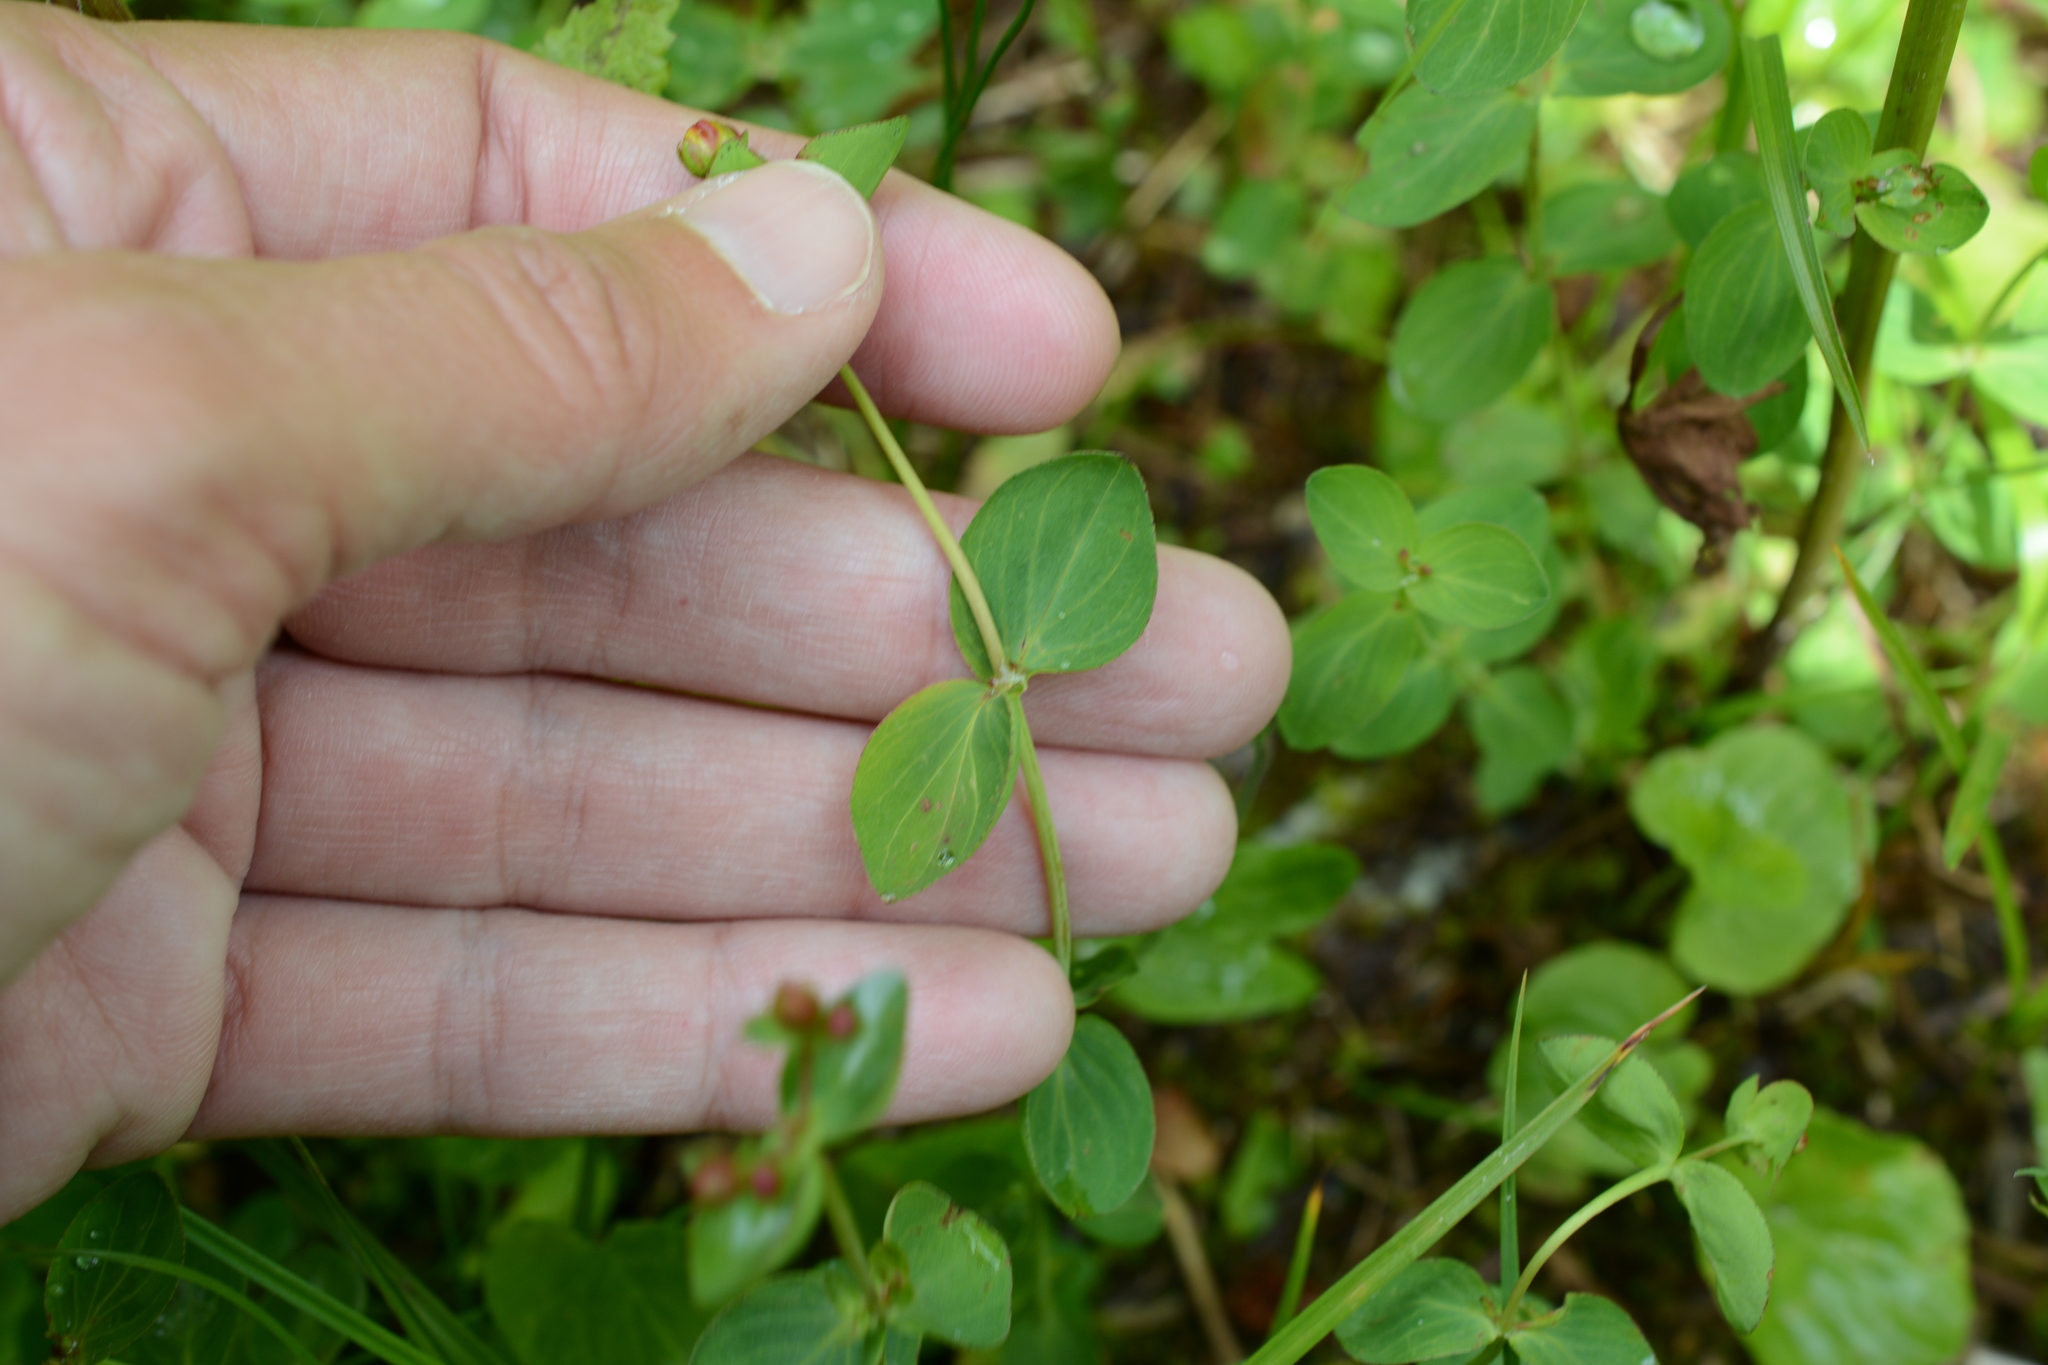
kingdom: Plantae
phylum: Tracheophyta
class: Magnoliopsida
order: Malpighiales
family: Hypericaceae
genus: Hypericum
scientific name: Hypericum scouleri
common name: Scouler's st. john's-wort
